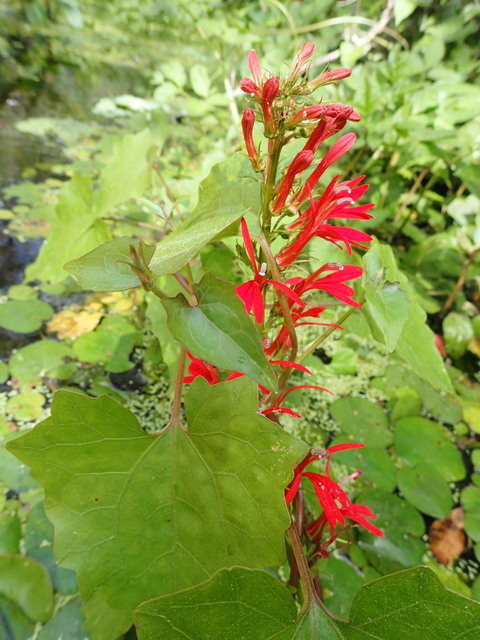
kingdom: Plantae
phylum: Tracheophyta
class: Magnoliopsida
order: Asterales
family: Campanulaceae
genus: Lobelia
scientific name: Lobelia cardinalis
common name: Cardinal flower
